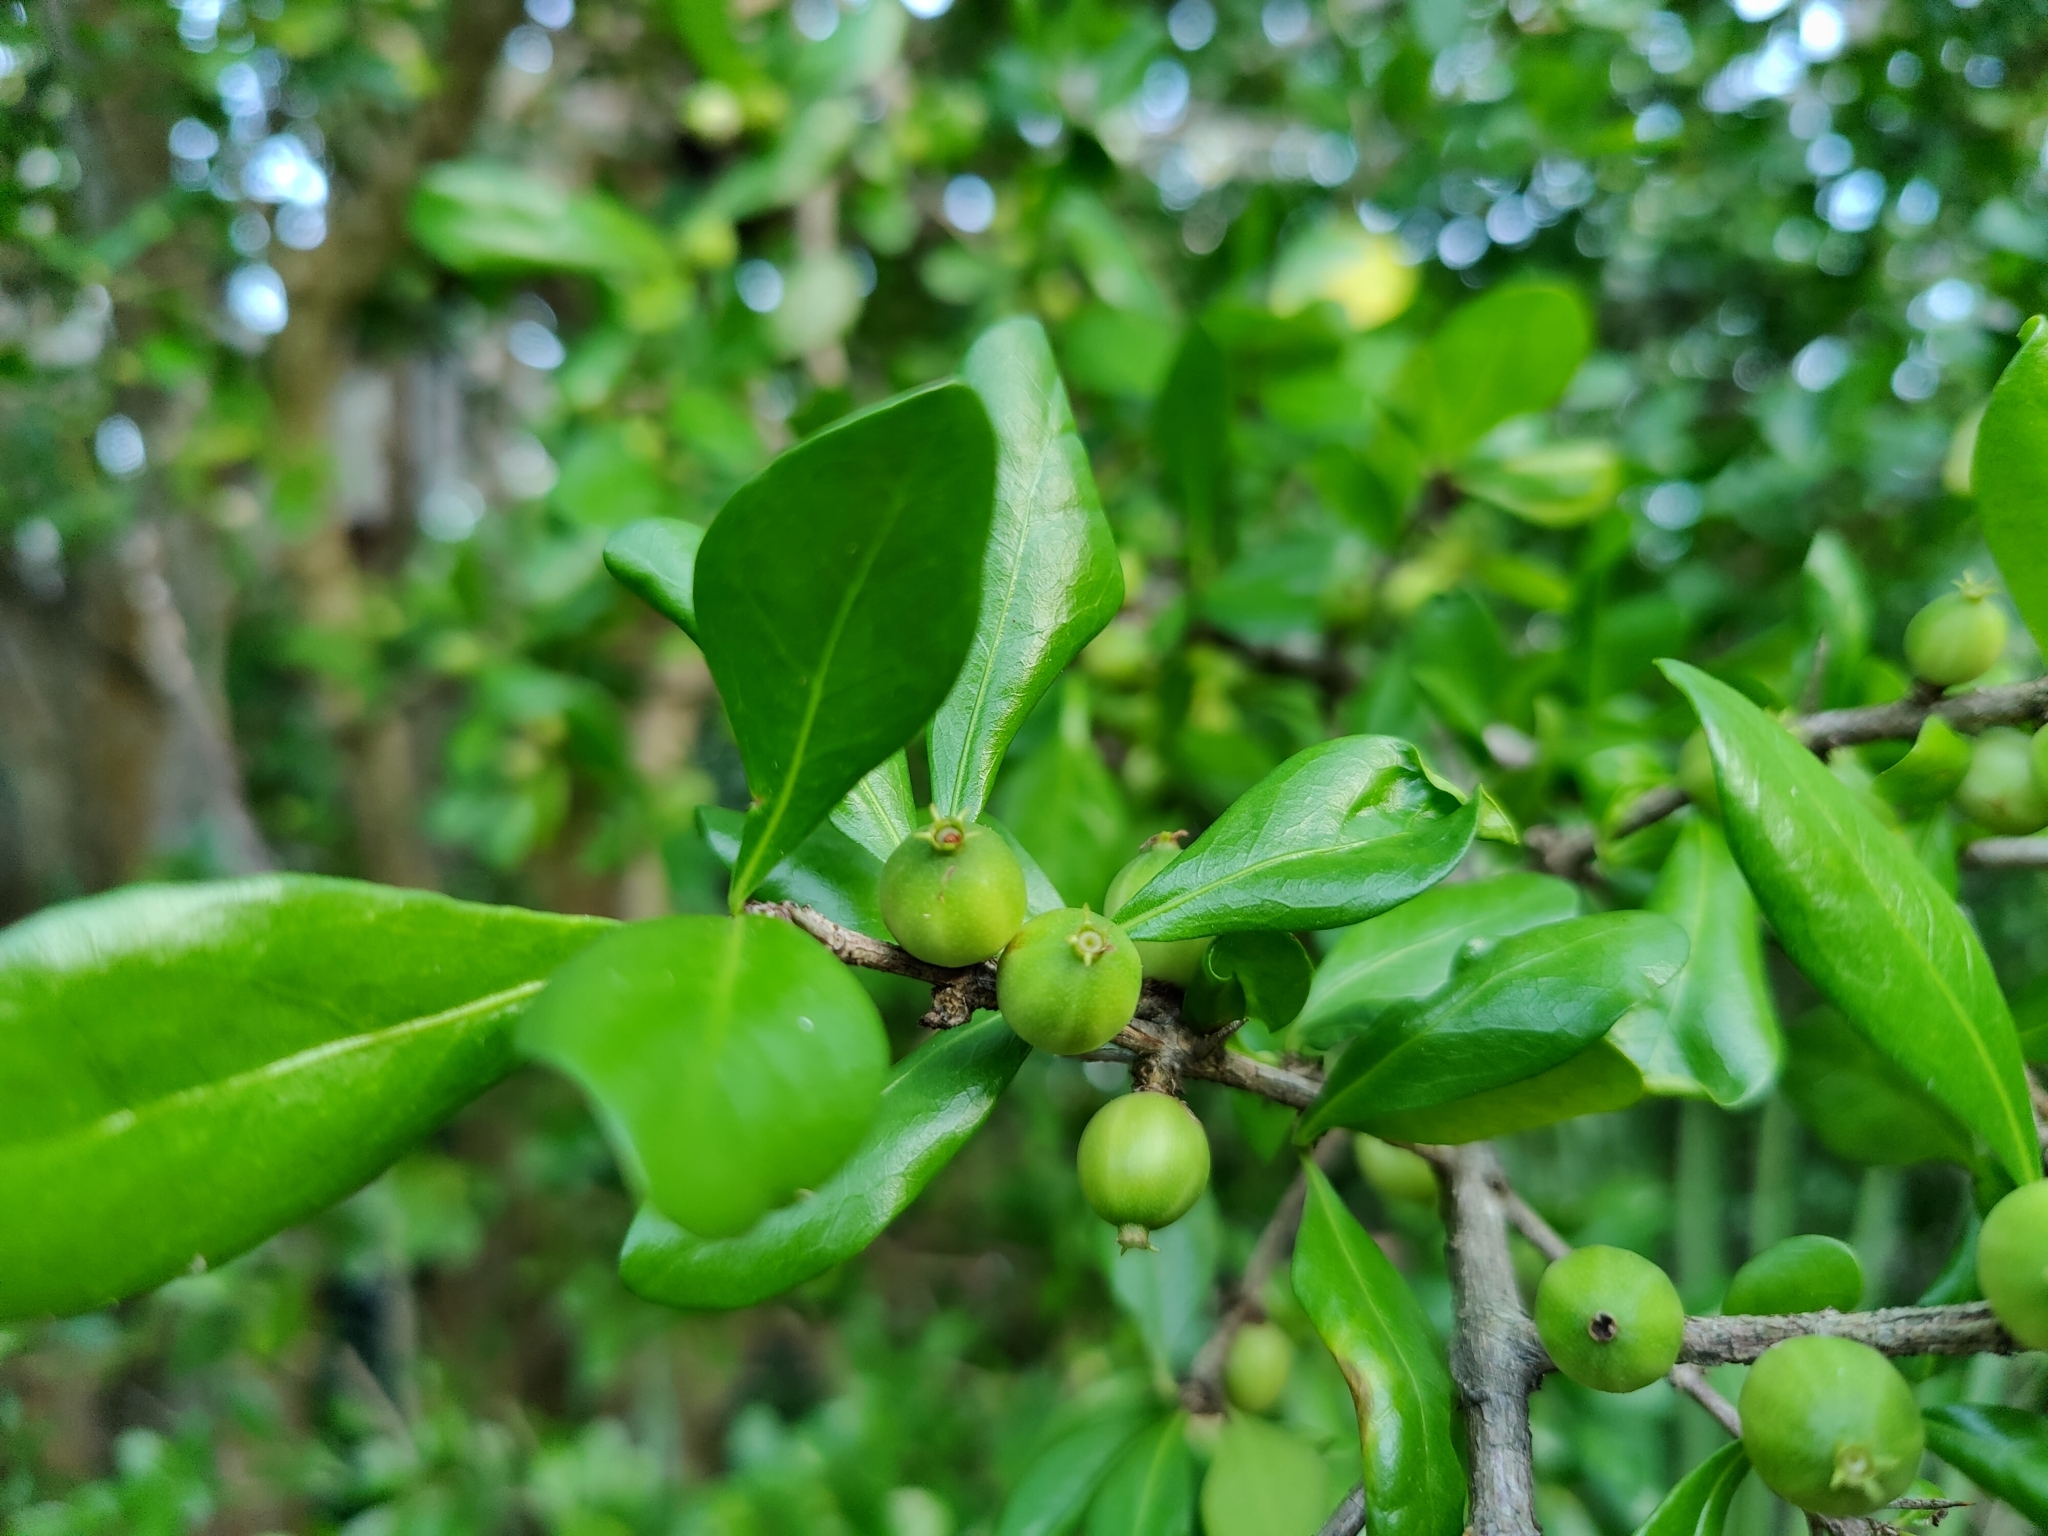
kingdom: Plantae
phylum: Tracheophyta
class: Magnoliopsida
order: Gentianales
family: Rubiaceae
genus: Randia
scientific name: Randia aculeata
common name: Inkberry
